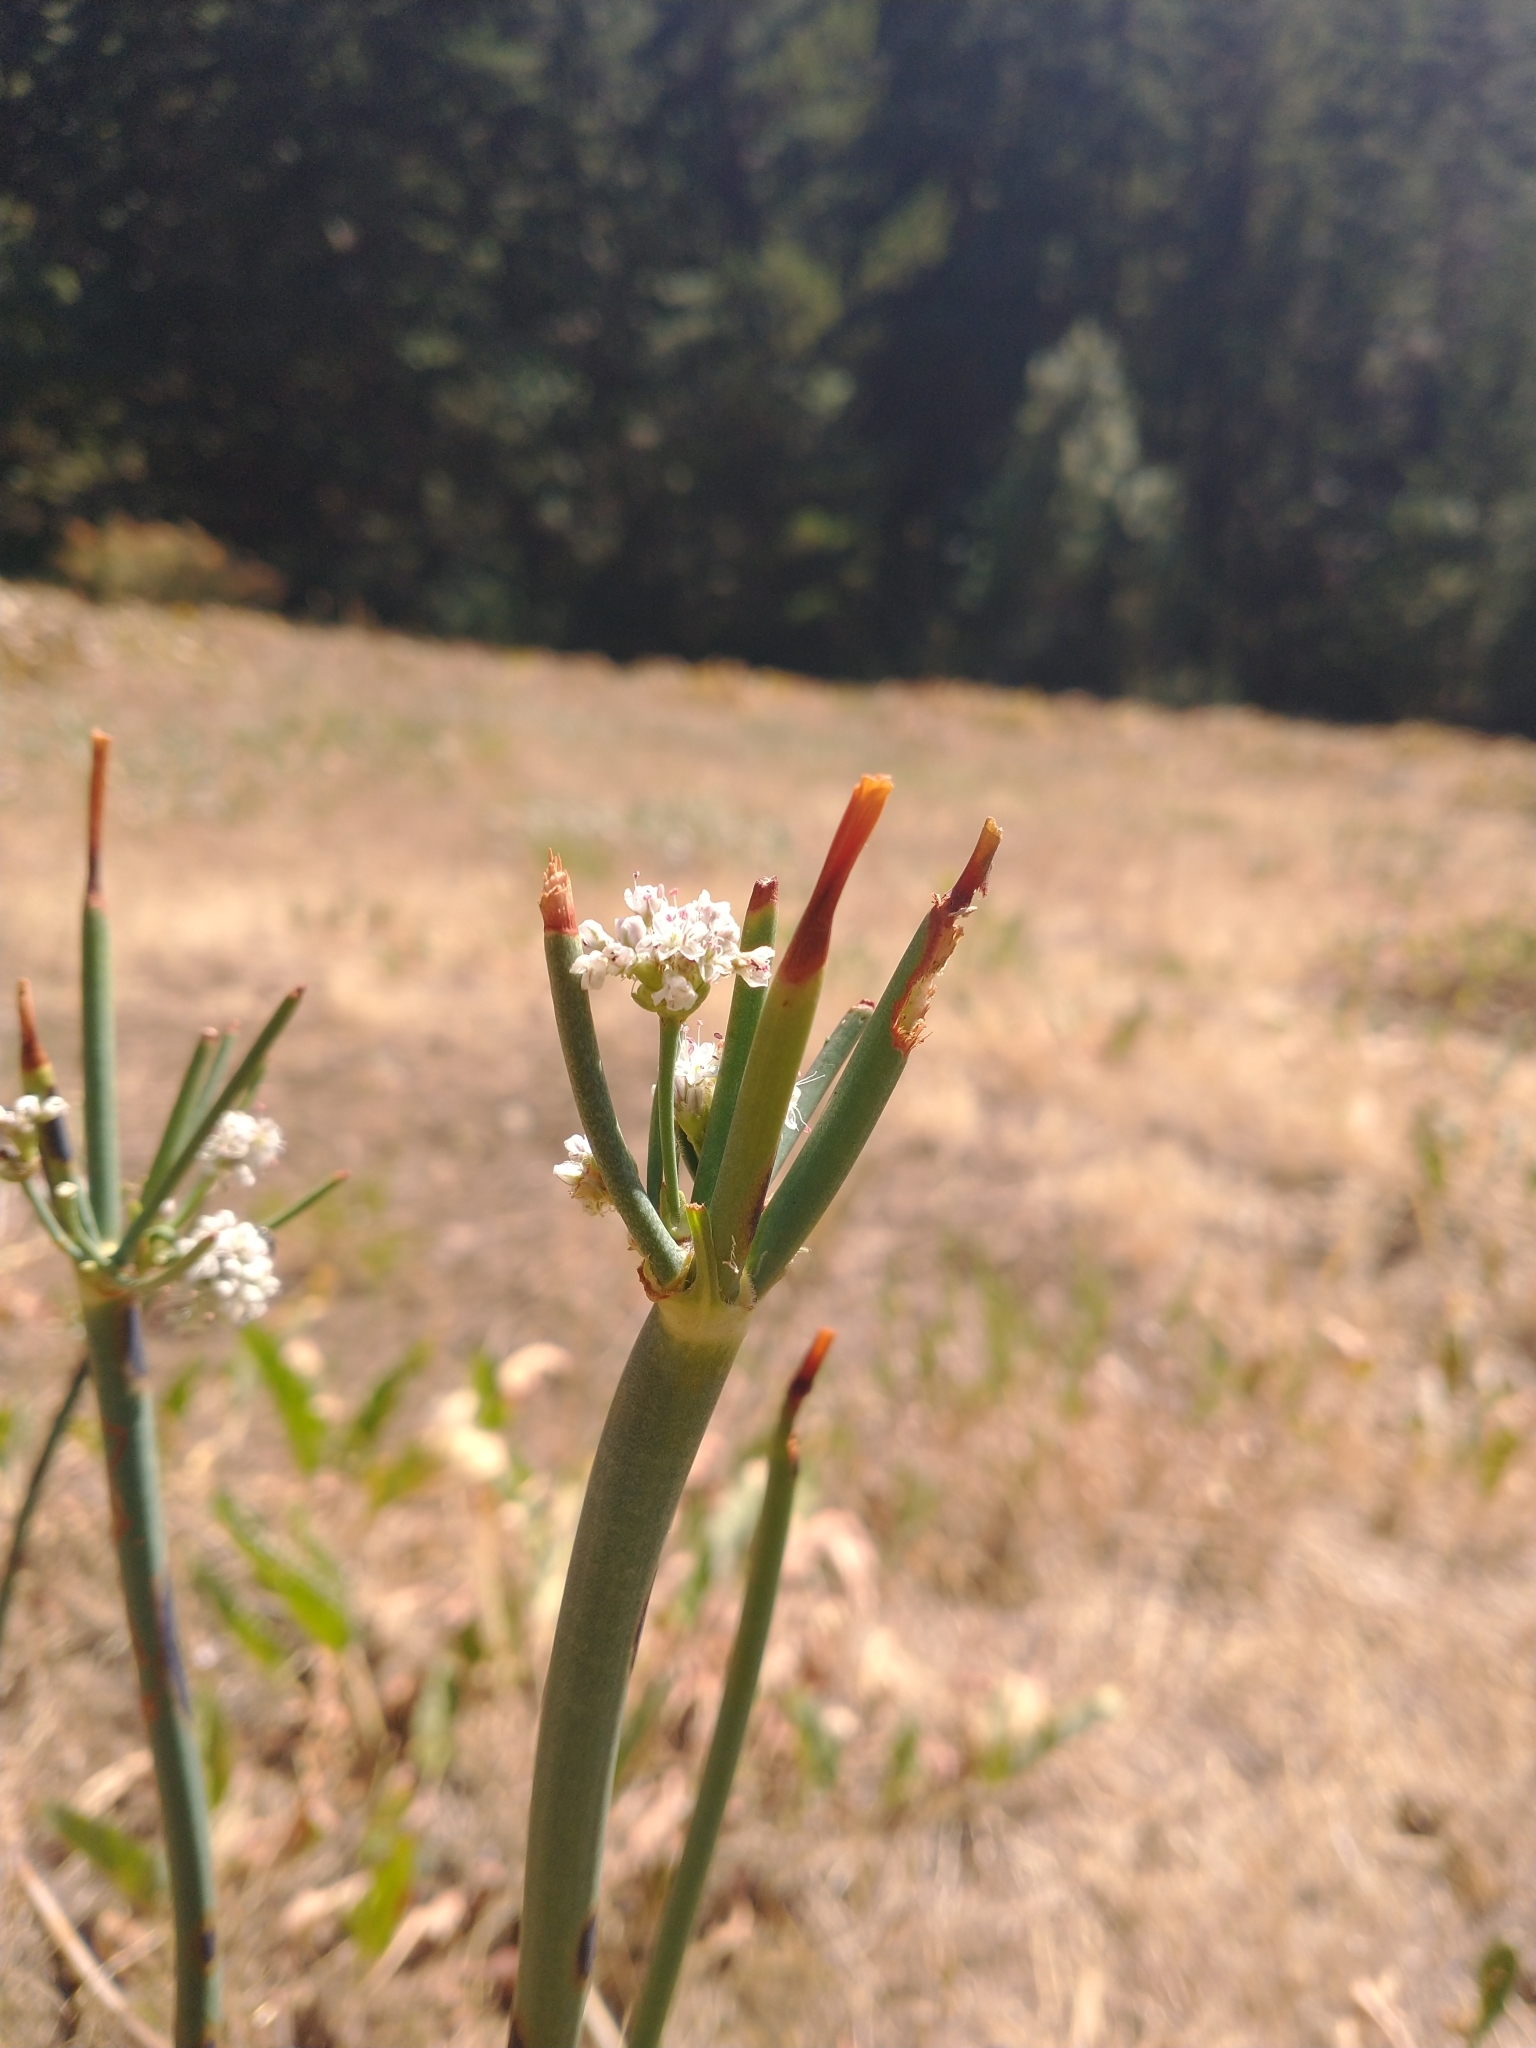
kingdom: Plantae
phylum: Tracheophyta
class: Magnoliopsida
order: Caryophyllales
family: Polygonaceae
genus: Eriogonum
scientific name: Eriogonum elatum
